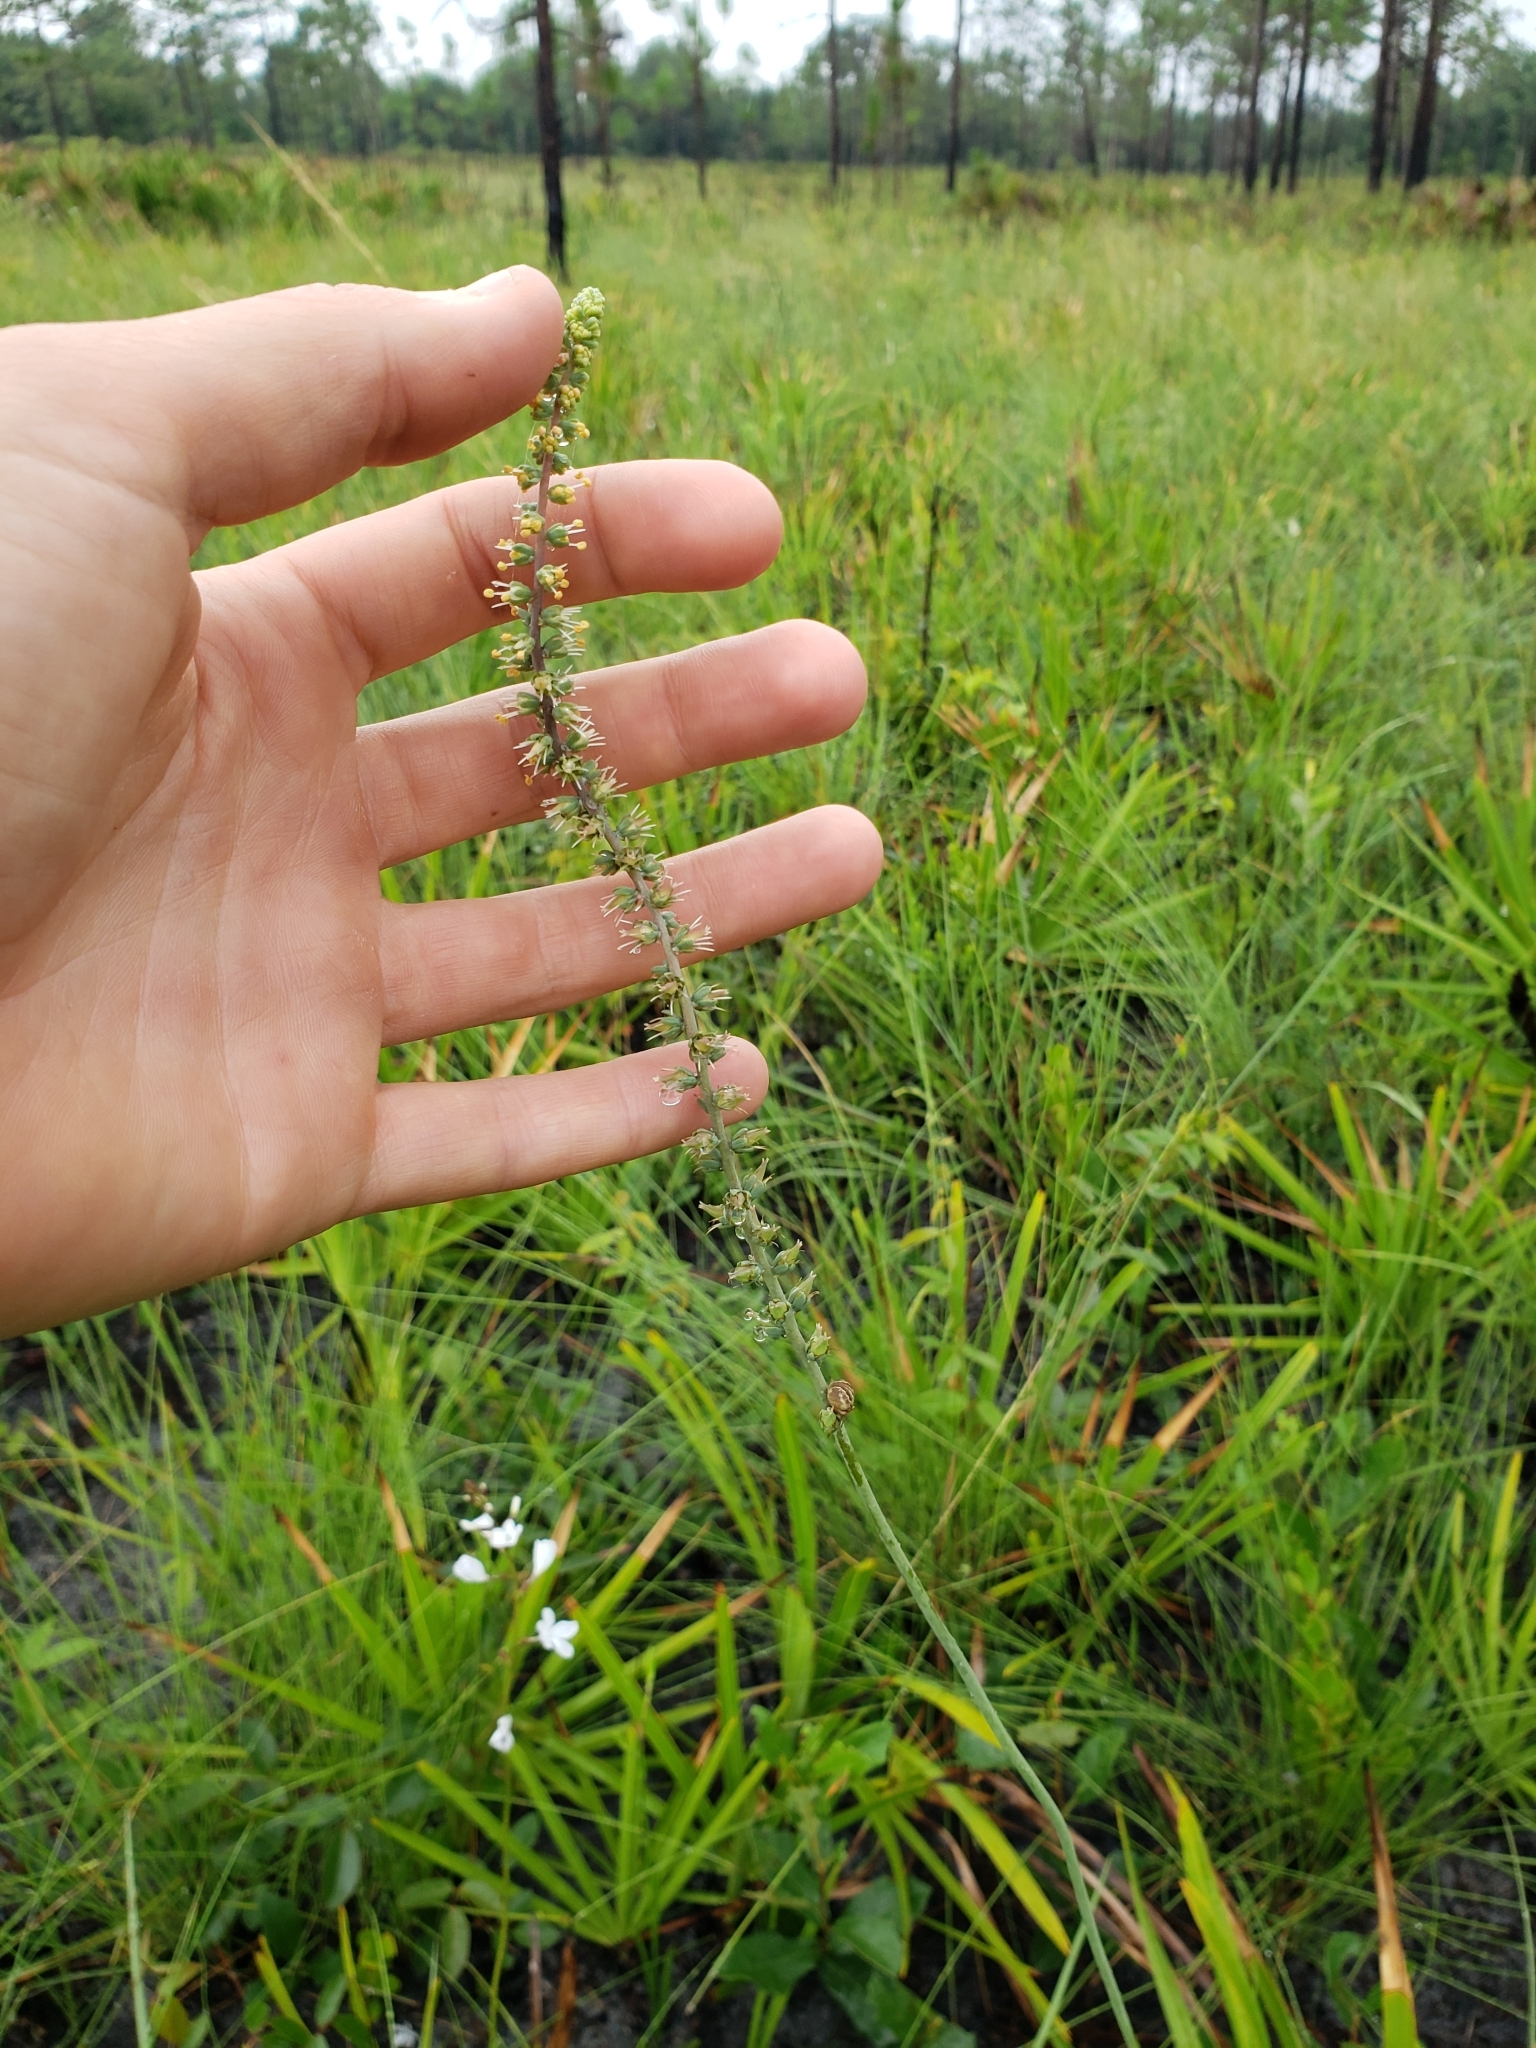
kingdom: Plantae
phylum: Tracheophyta
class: Liliopsida
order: Liliales
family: Melanthiaceae
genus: Schoenocaulon
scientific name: Schoenocaulon dubium
